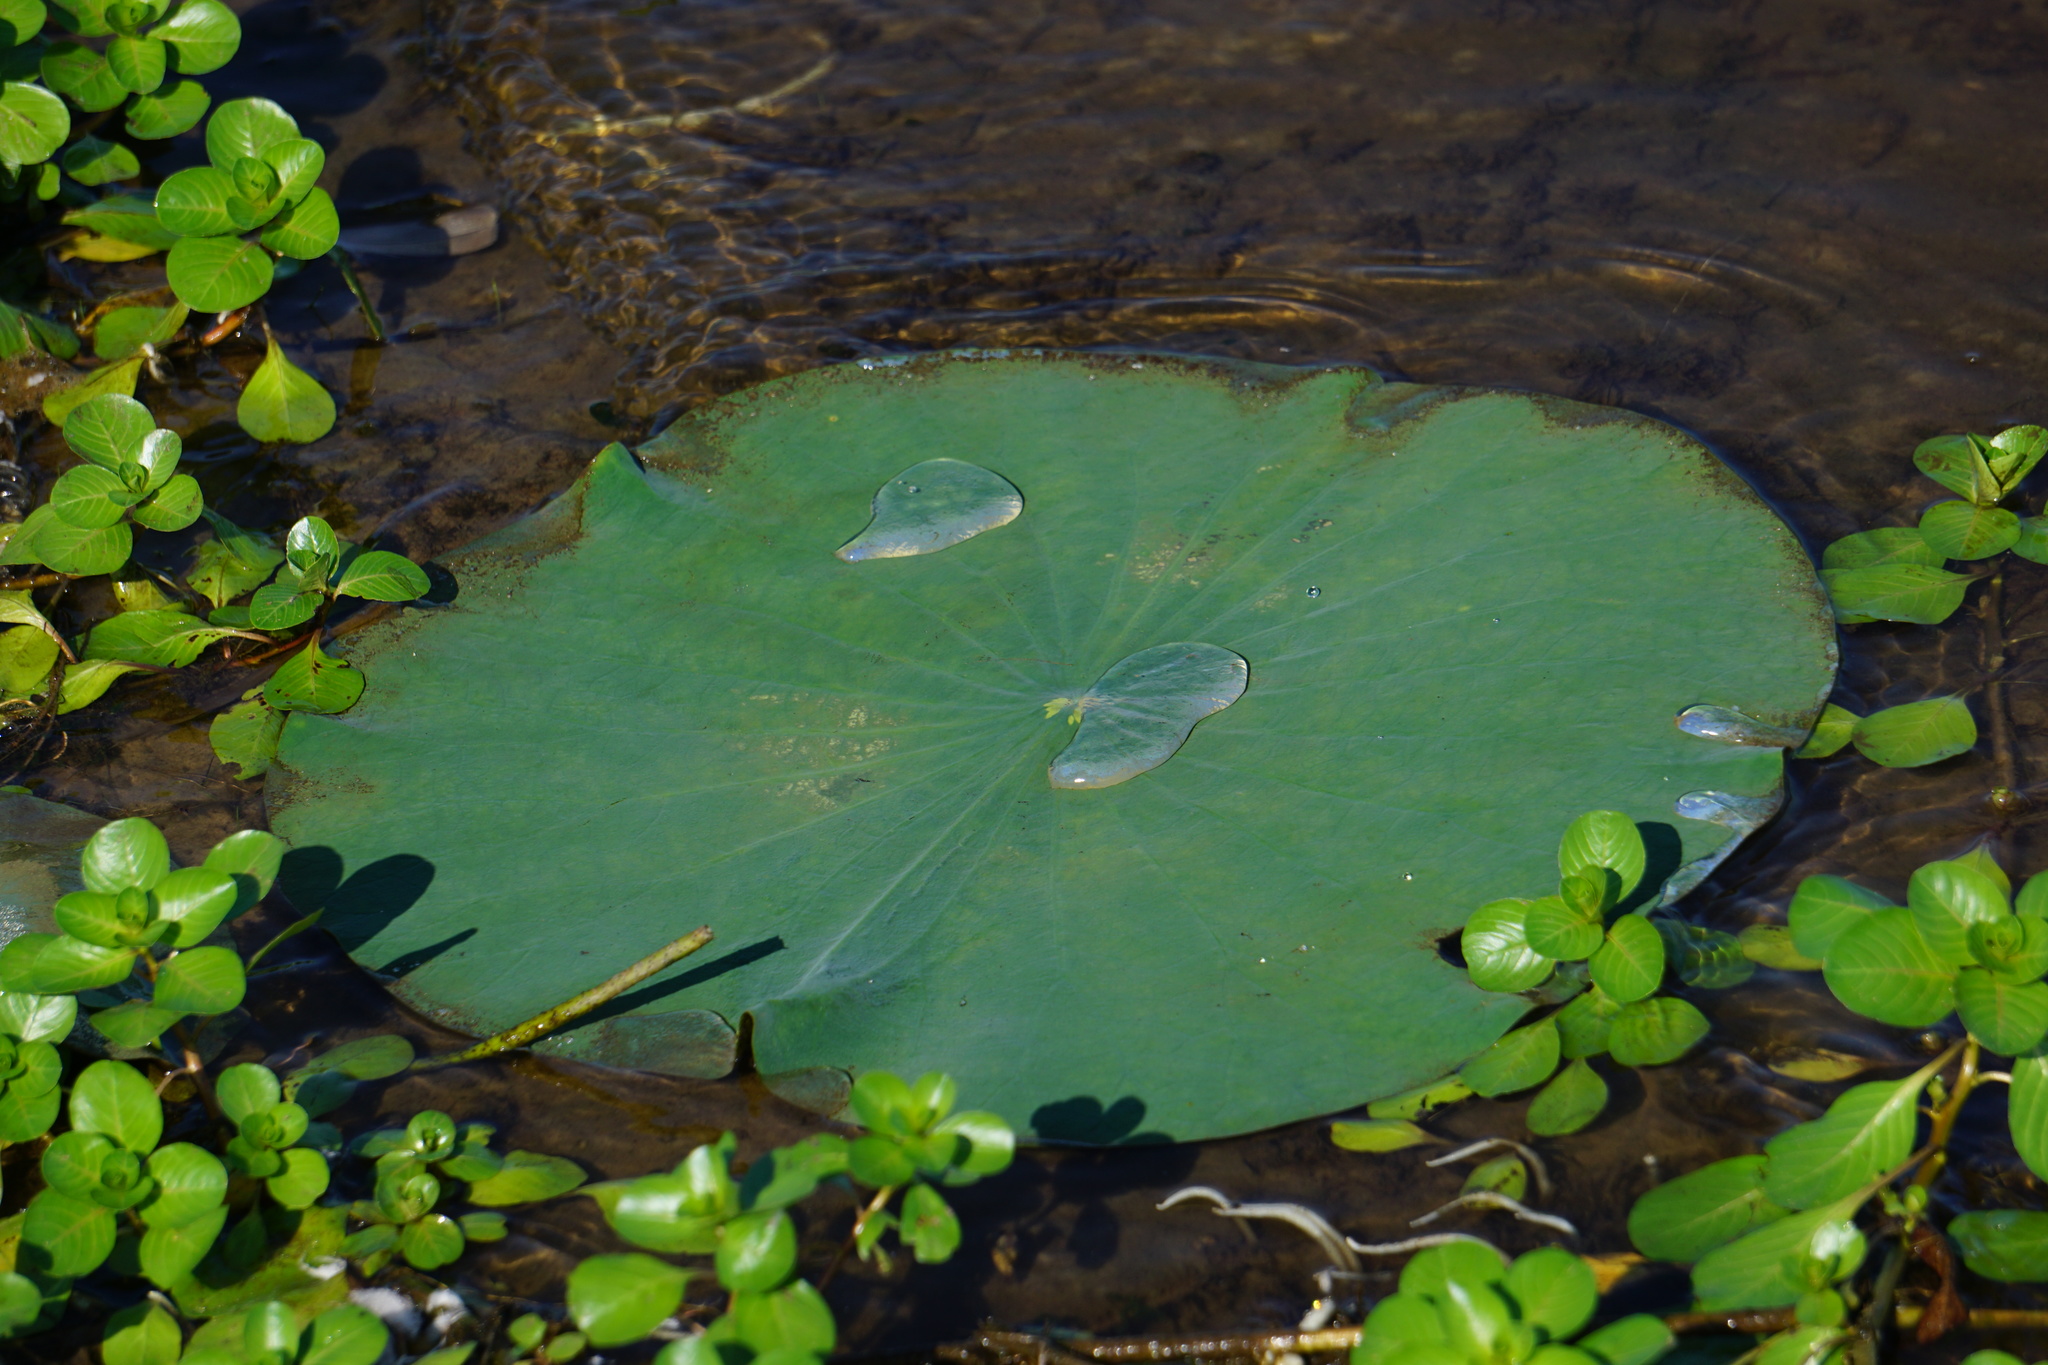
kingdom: Plantae
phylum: Tracheophyta
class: Magnoliopsida
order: Proteales
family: Nelumbonaceae
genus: Nelumbo
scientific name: Nelumbo lutea
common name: American lotus
